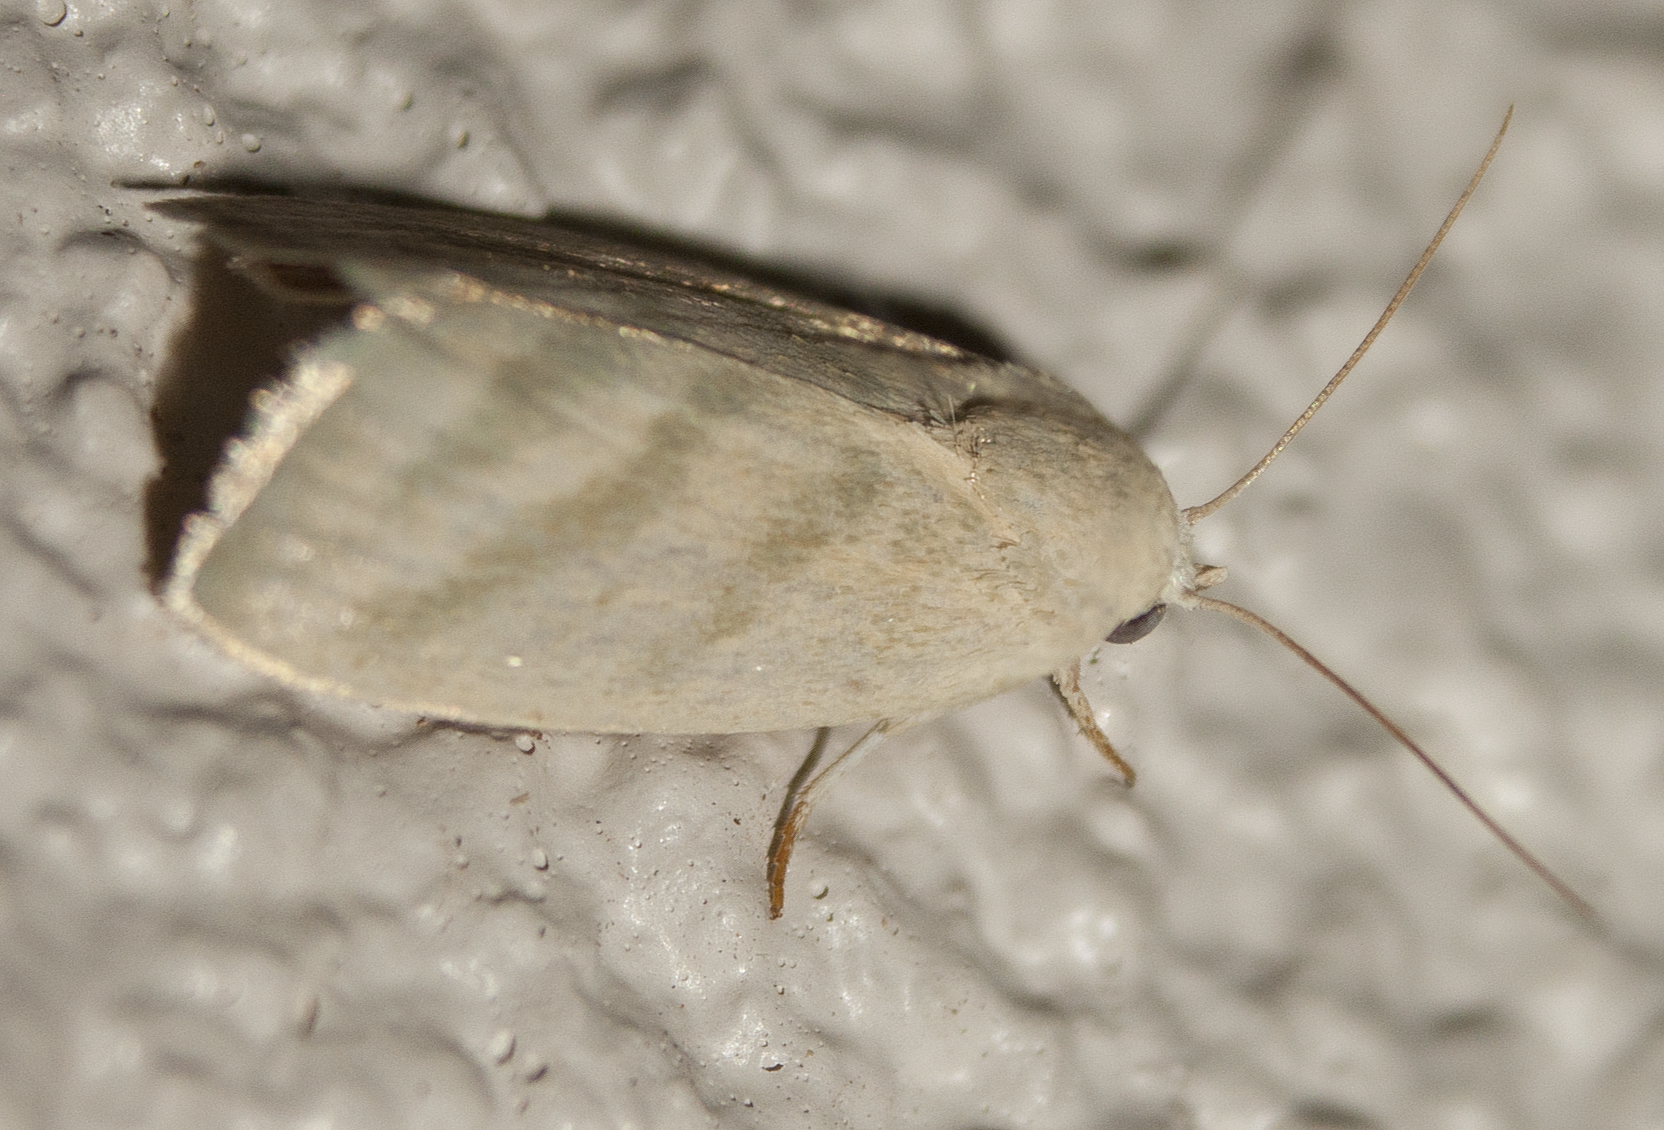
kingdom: Animalia
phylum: Arthropoda
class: Insecta
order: Lepidoptera
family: Nolidae
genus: Earias
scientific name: Earias paralella
